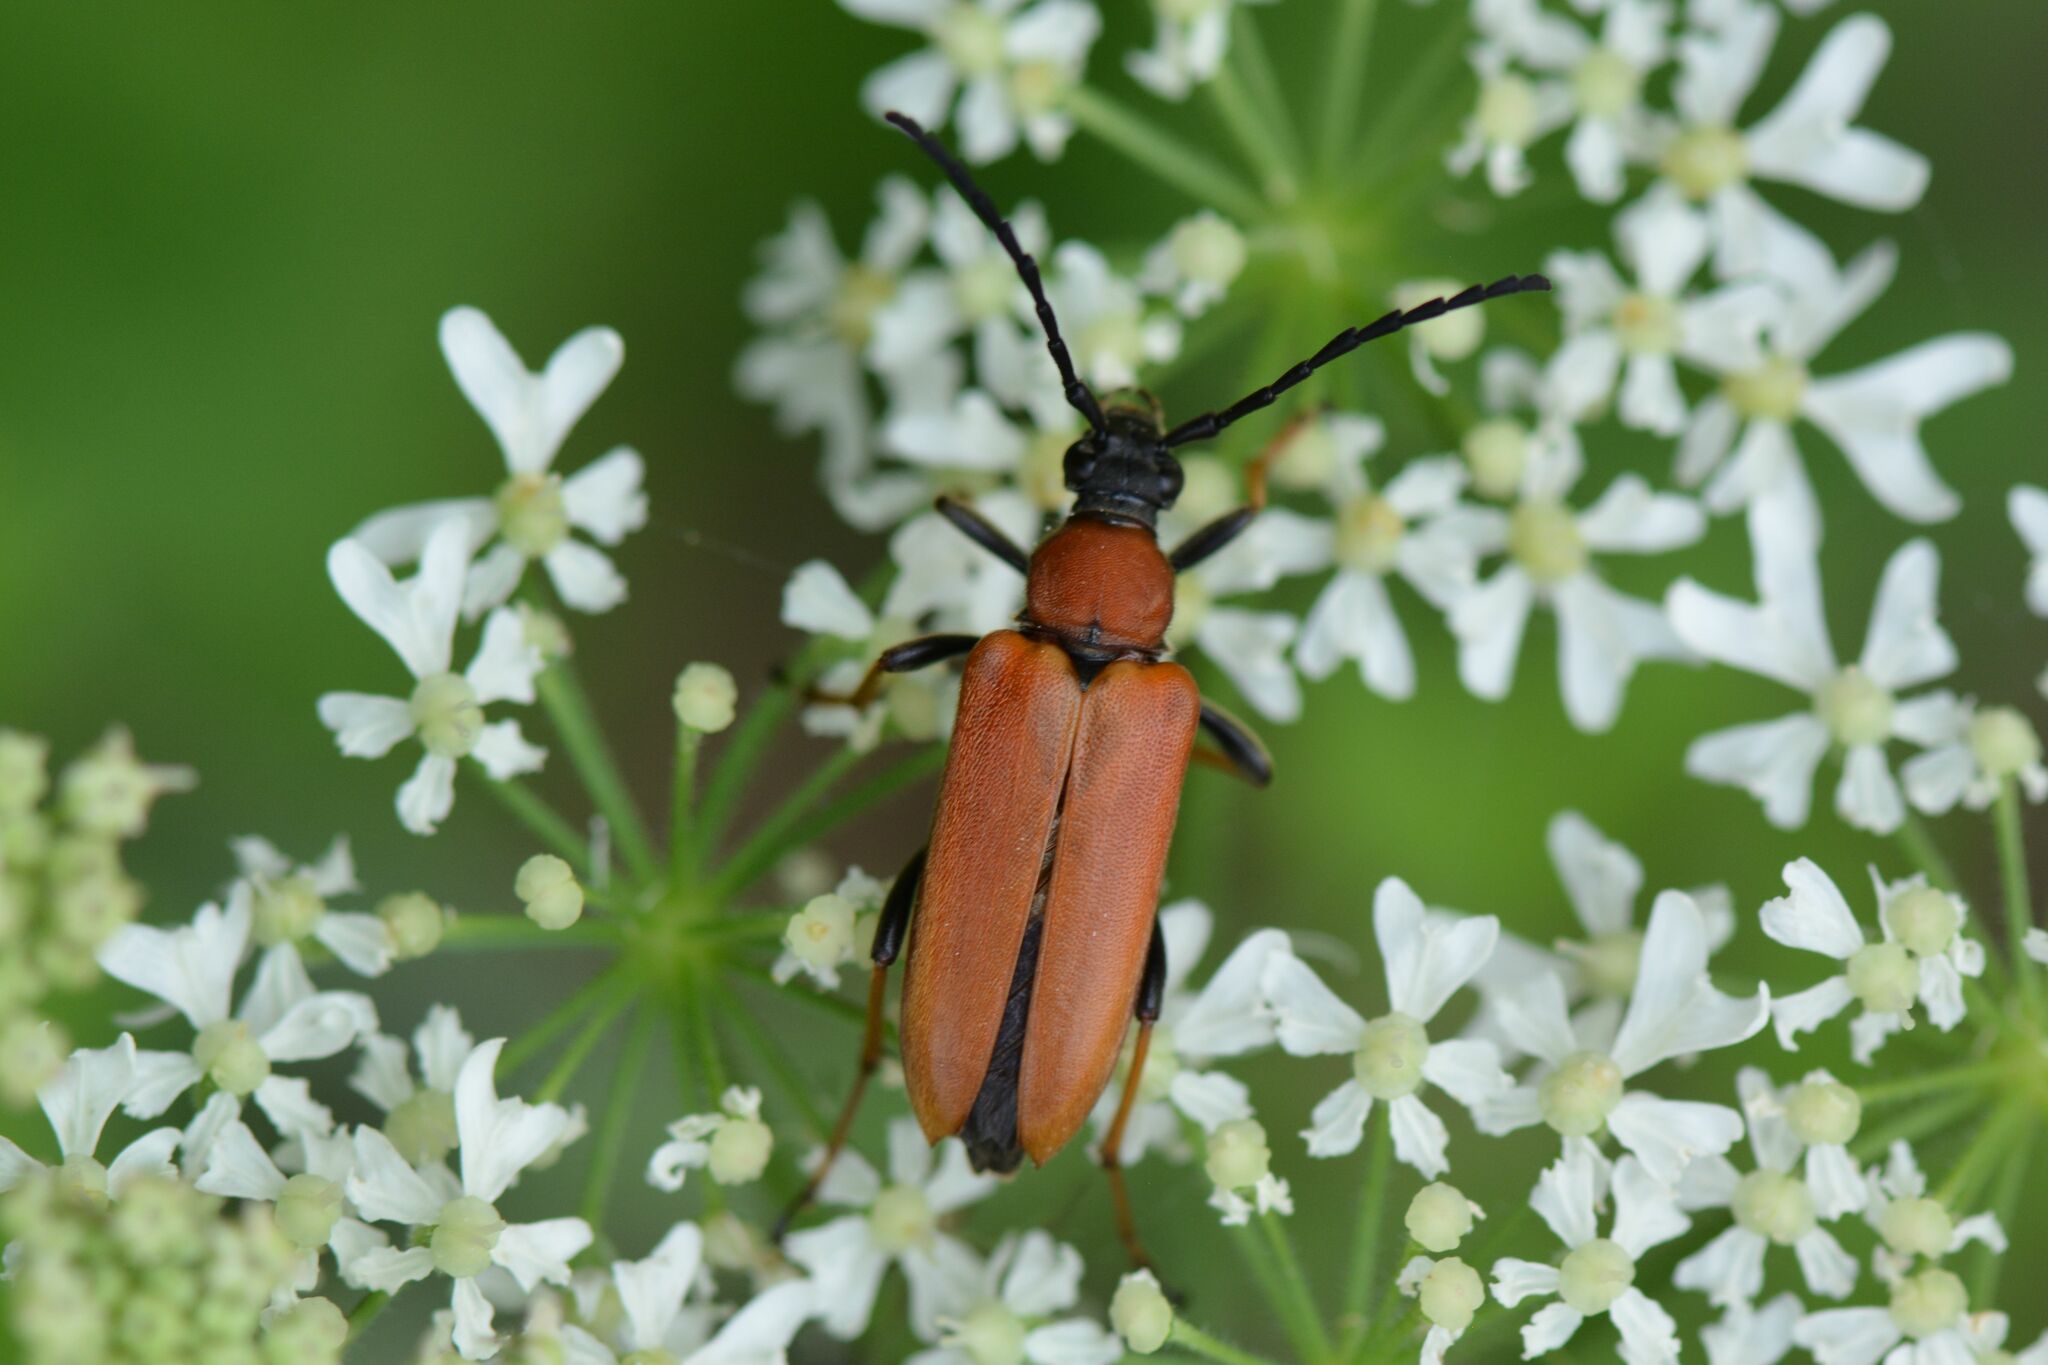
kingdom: Animalia
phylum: Arthropoda
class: Insecta
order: Coleoptera
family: Cerambycidae
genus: Stictoleptura
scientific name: Stictoleptura rubra
